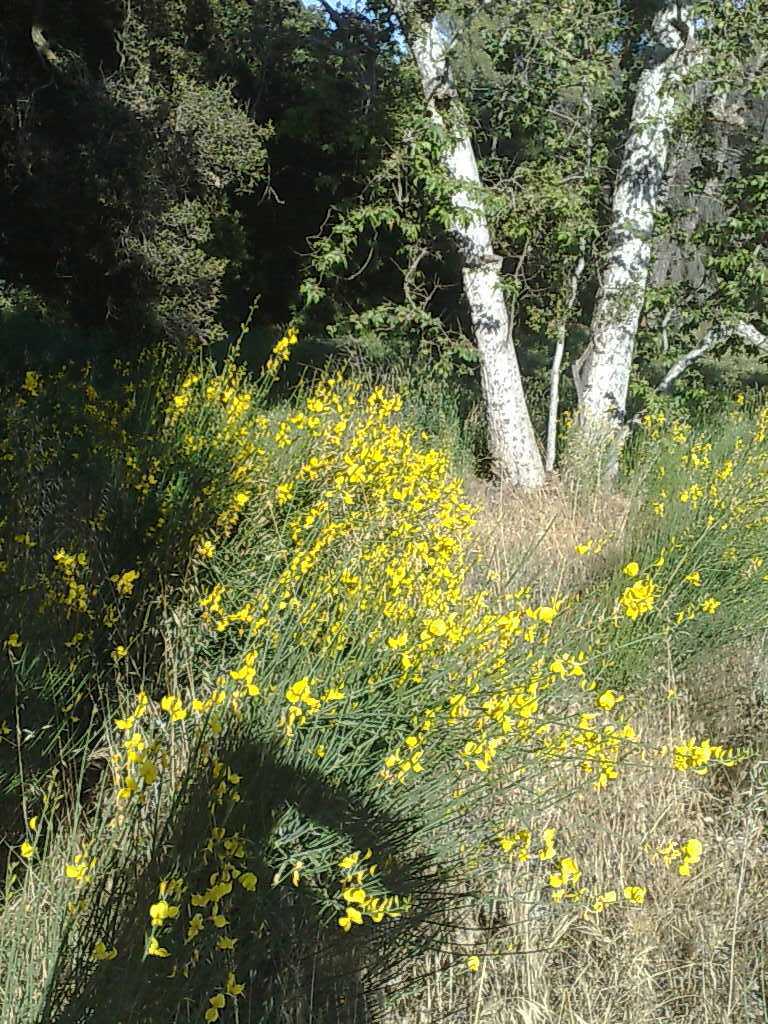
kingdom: Plantae
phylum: Tracheophyta
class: Magnoliopsida
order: Proteales
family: Platanaceae
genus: Platanus
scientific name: Platanus racemosa
